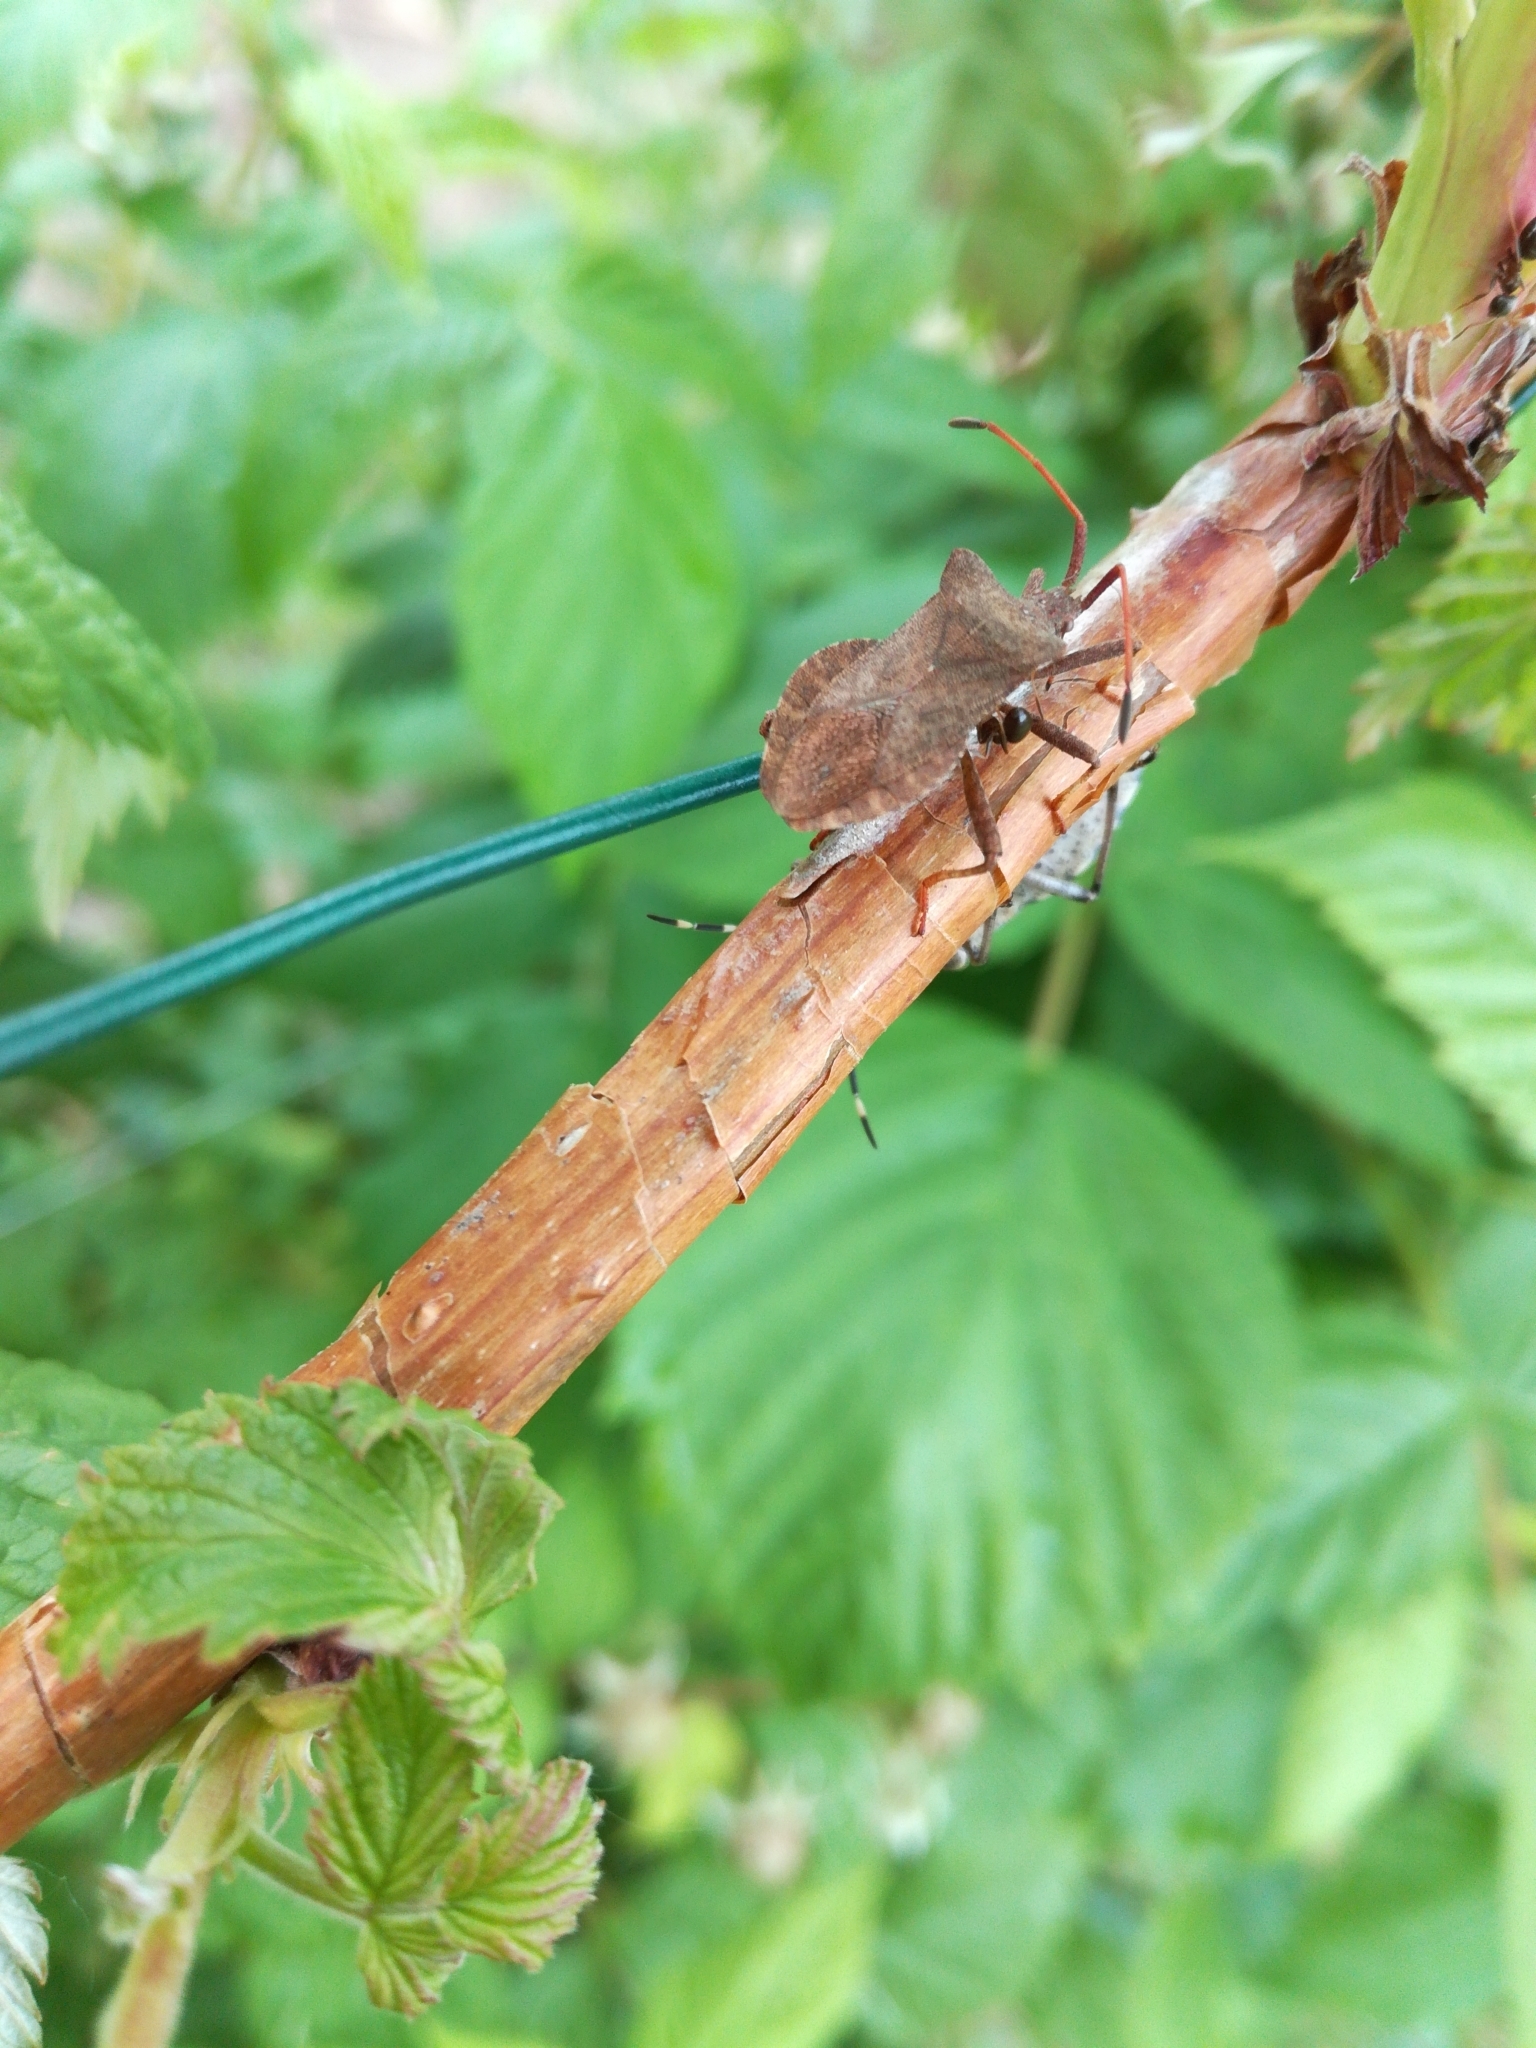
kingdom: Animalia
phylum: Arthropoda
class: Insecta
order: Hemiptera
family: Coreidae
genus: Coreus
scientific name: Coreus marginatus
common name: Dock bug
